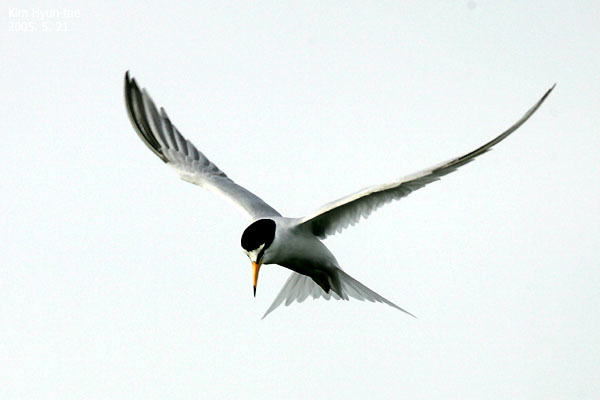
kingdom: Animalia
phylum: Chordata
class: Aves
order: Charadriiformes
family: Laridae
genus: Sternula
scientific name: Sternula albifrons
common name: Little tern
